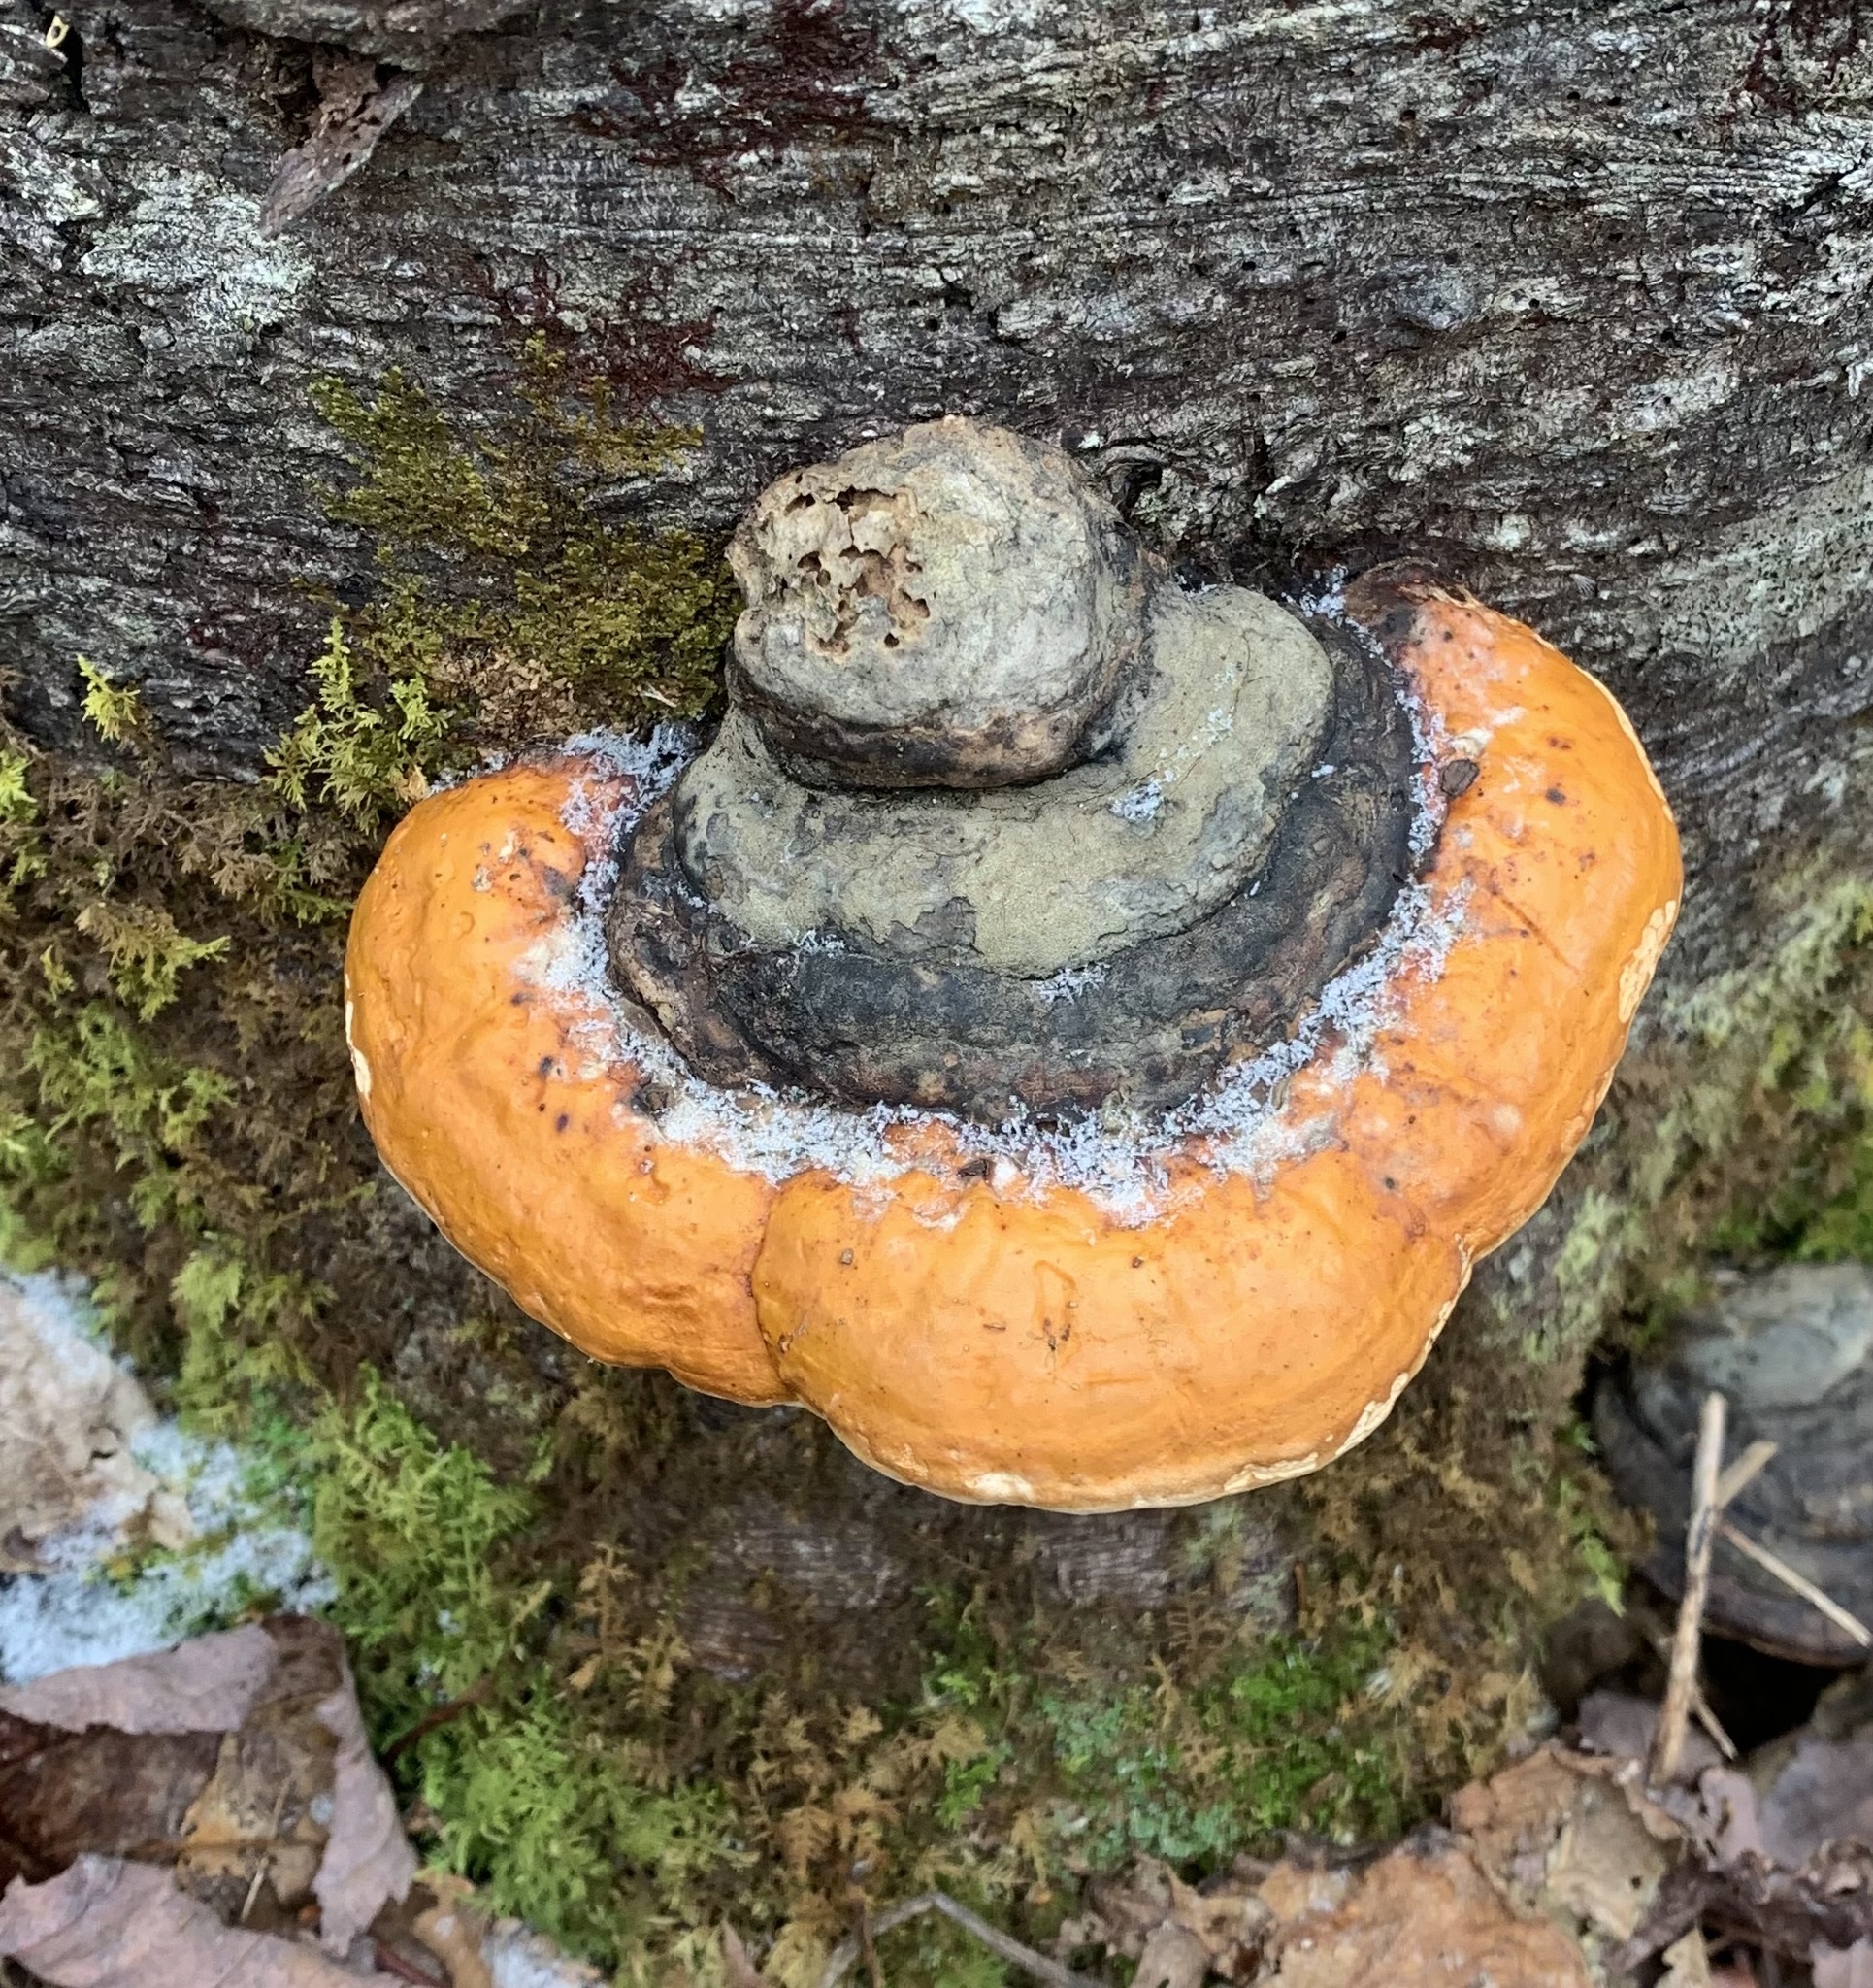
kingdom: Fungi
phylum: Basidiomycota
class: Agaricomycetes
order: Polyporales
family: Fomitopsidaceae
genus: Fomitopsis
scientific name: Fomitopsis mounceae
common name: Northern red belt
